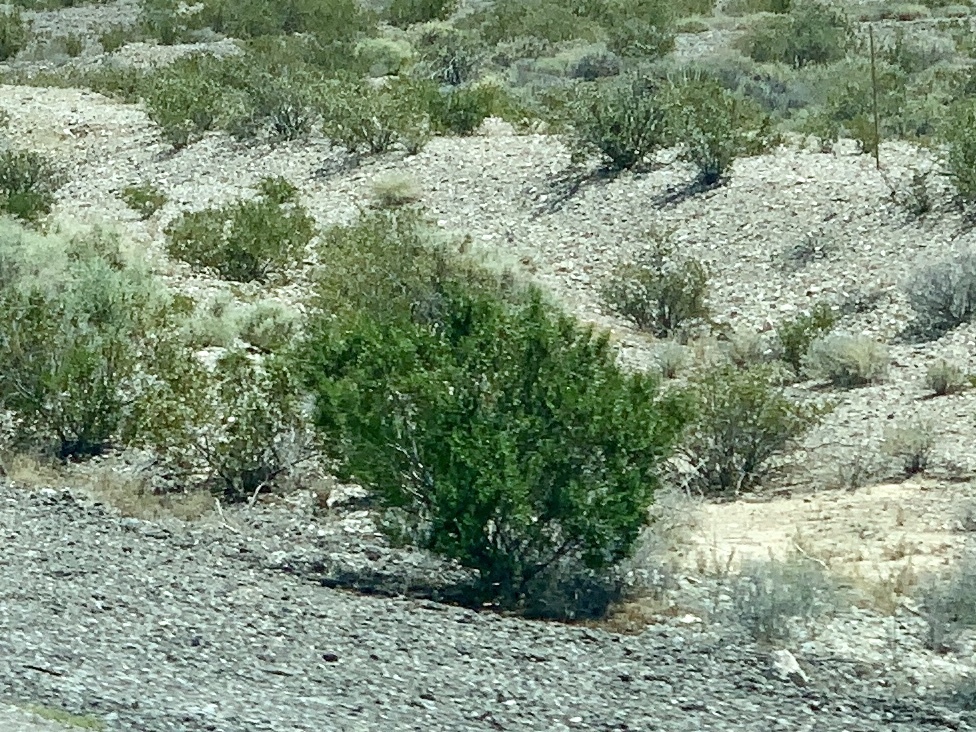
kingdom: Plantae
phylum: Tracheophyta
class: Magnoliopsida
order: Zygophyllales
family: Zygophyllaceae
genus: Larrea
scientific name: Larrea tridentata
